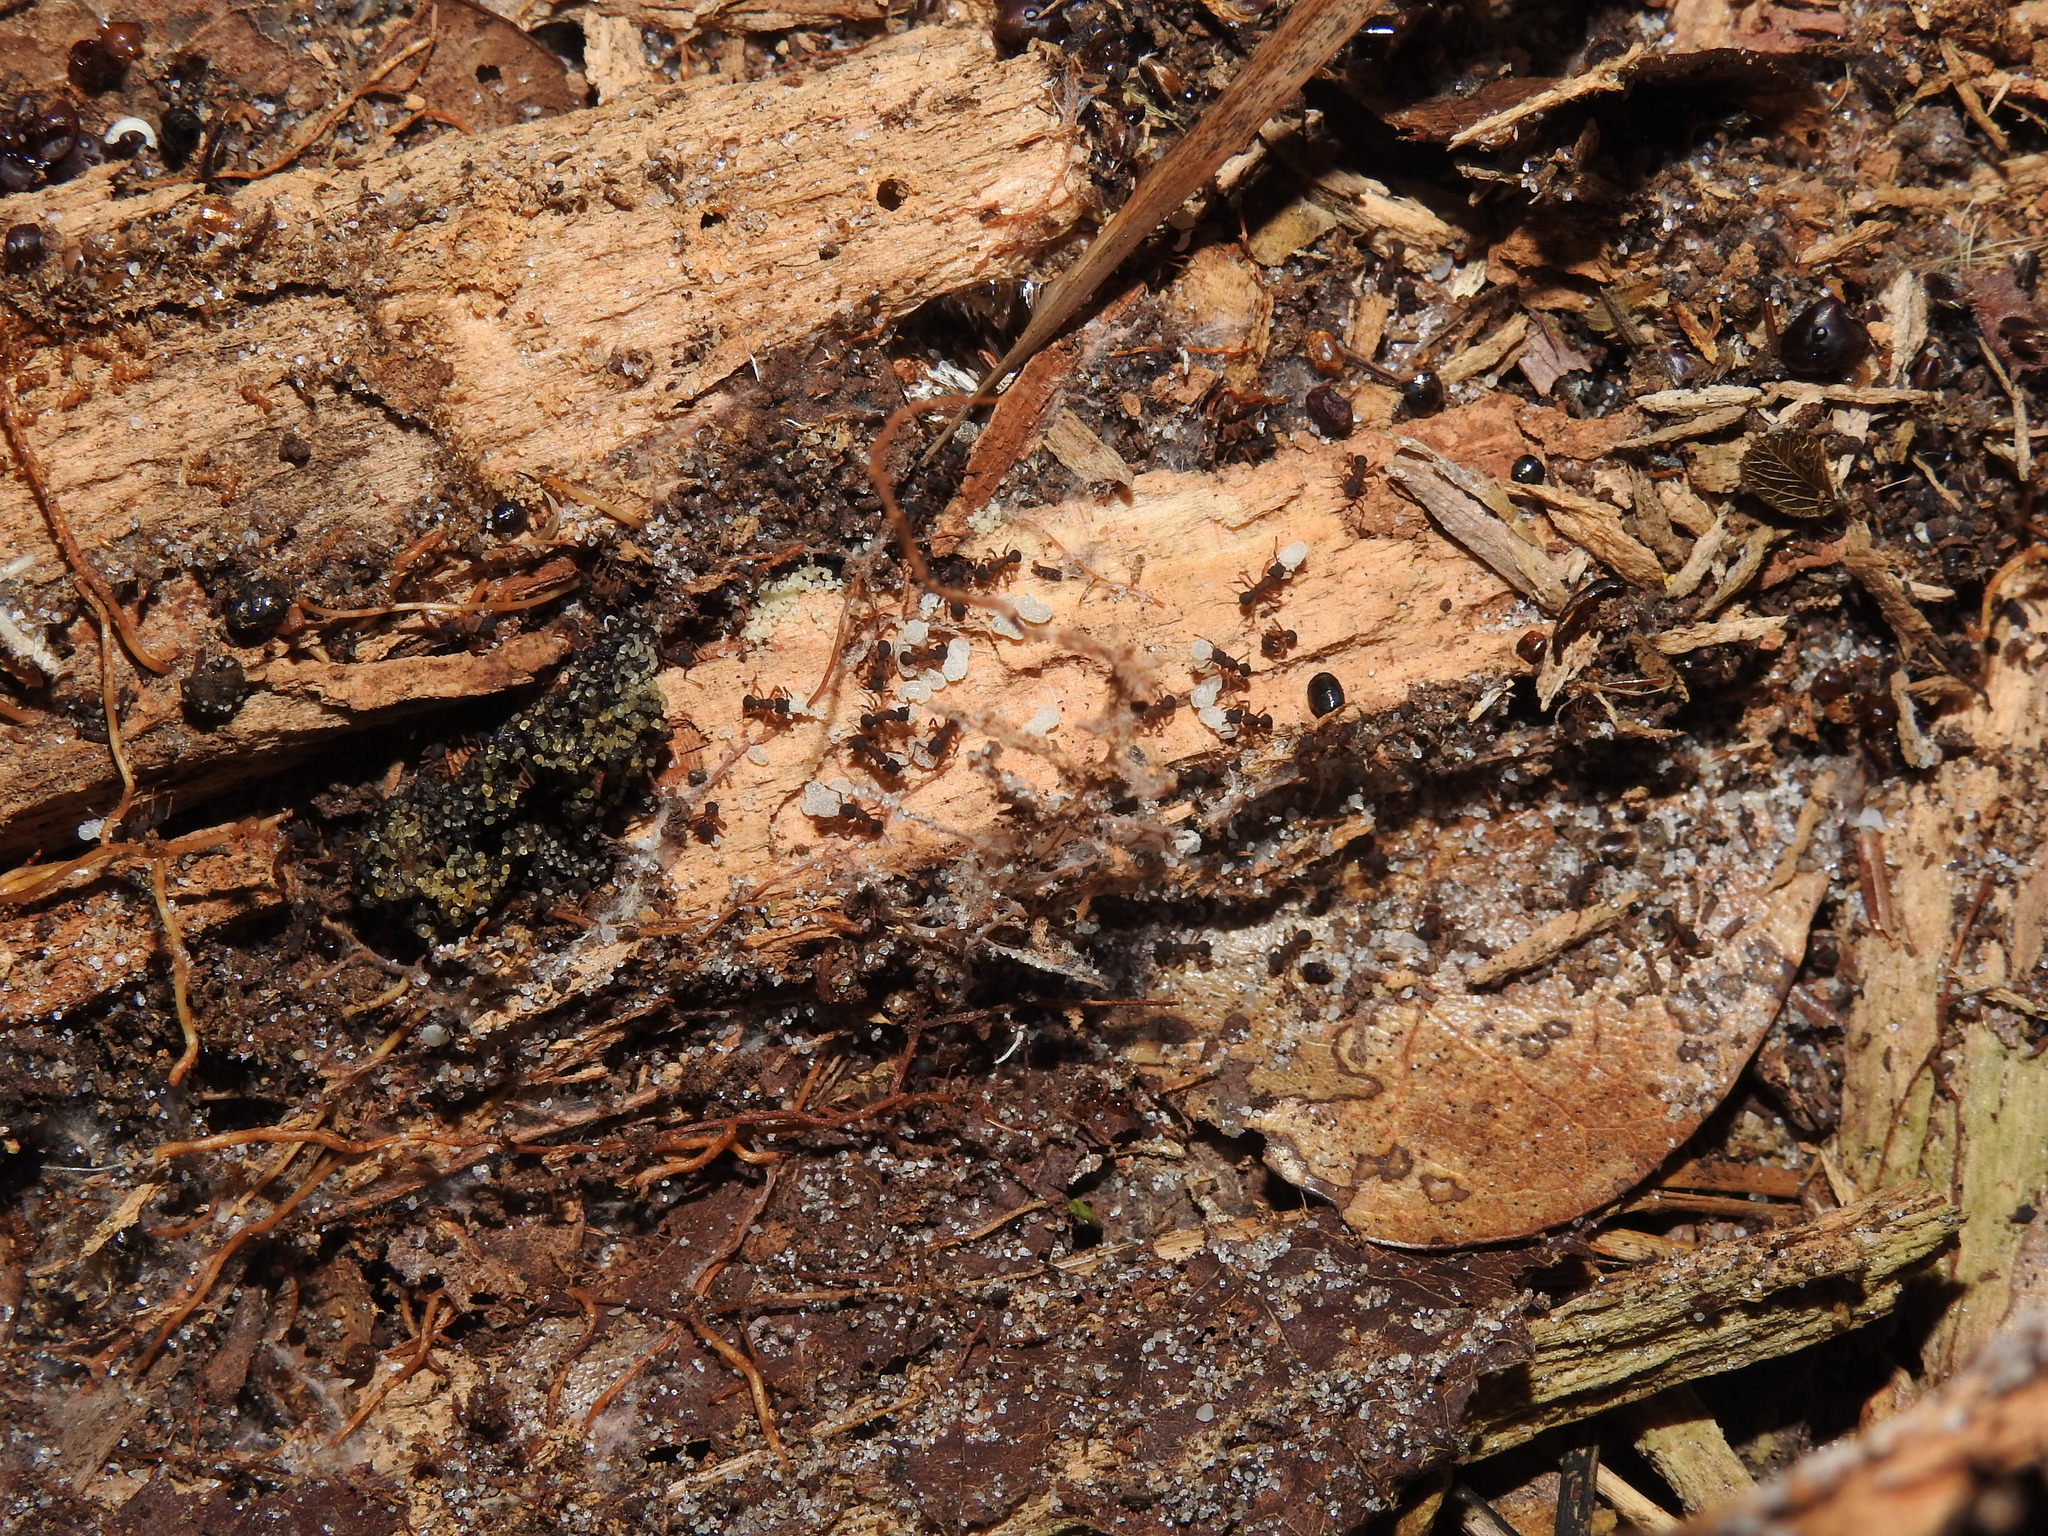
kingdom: Animalia
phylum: Arthropoda
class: Insecta
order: Hymenoptera
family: Formicidae
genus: Cyphomyrmex
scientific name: Cyphomyrmex rimosus
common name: Rimose fungus ant
